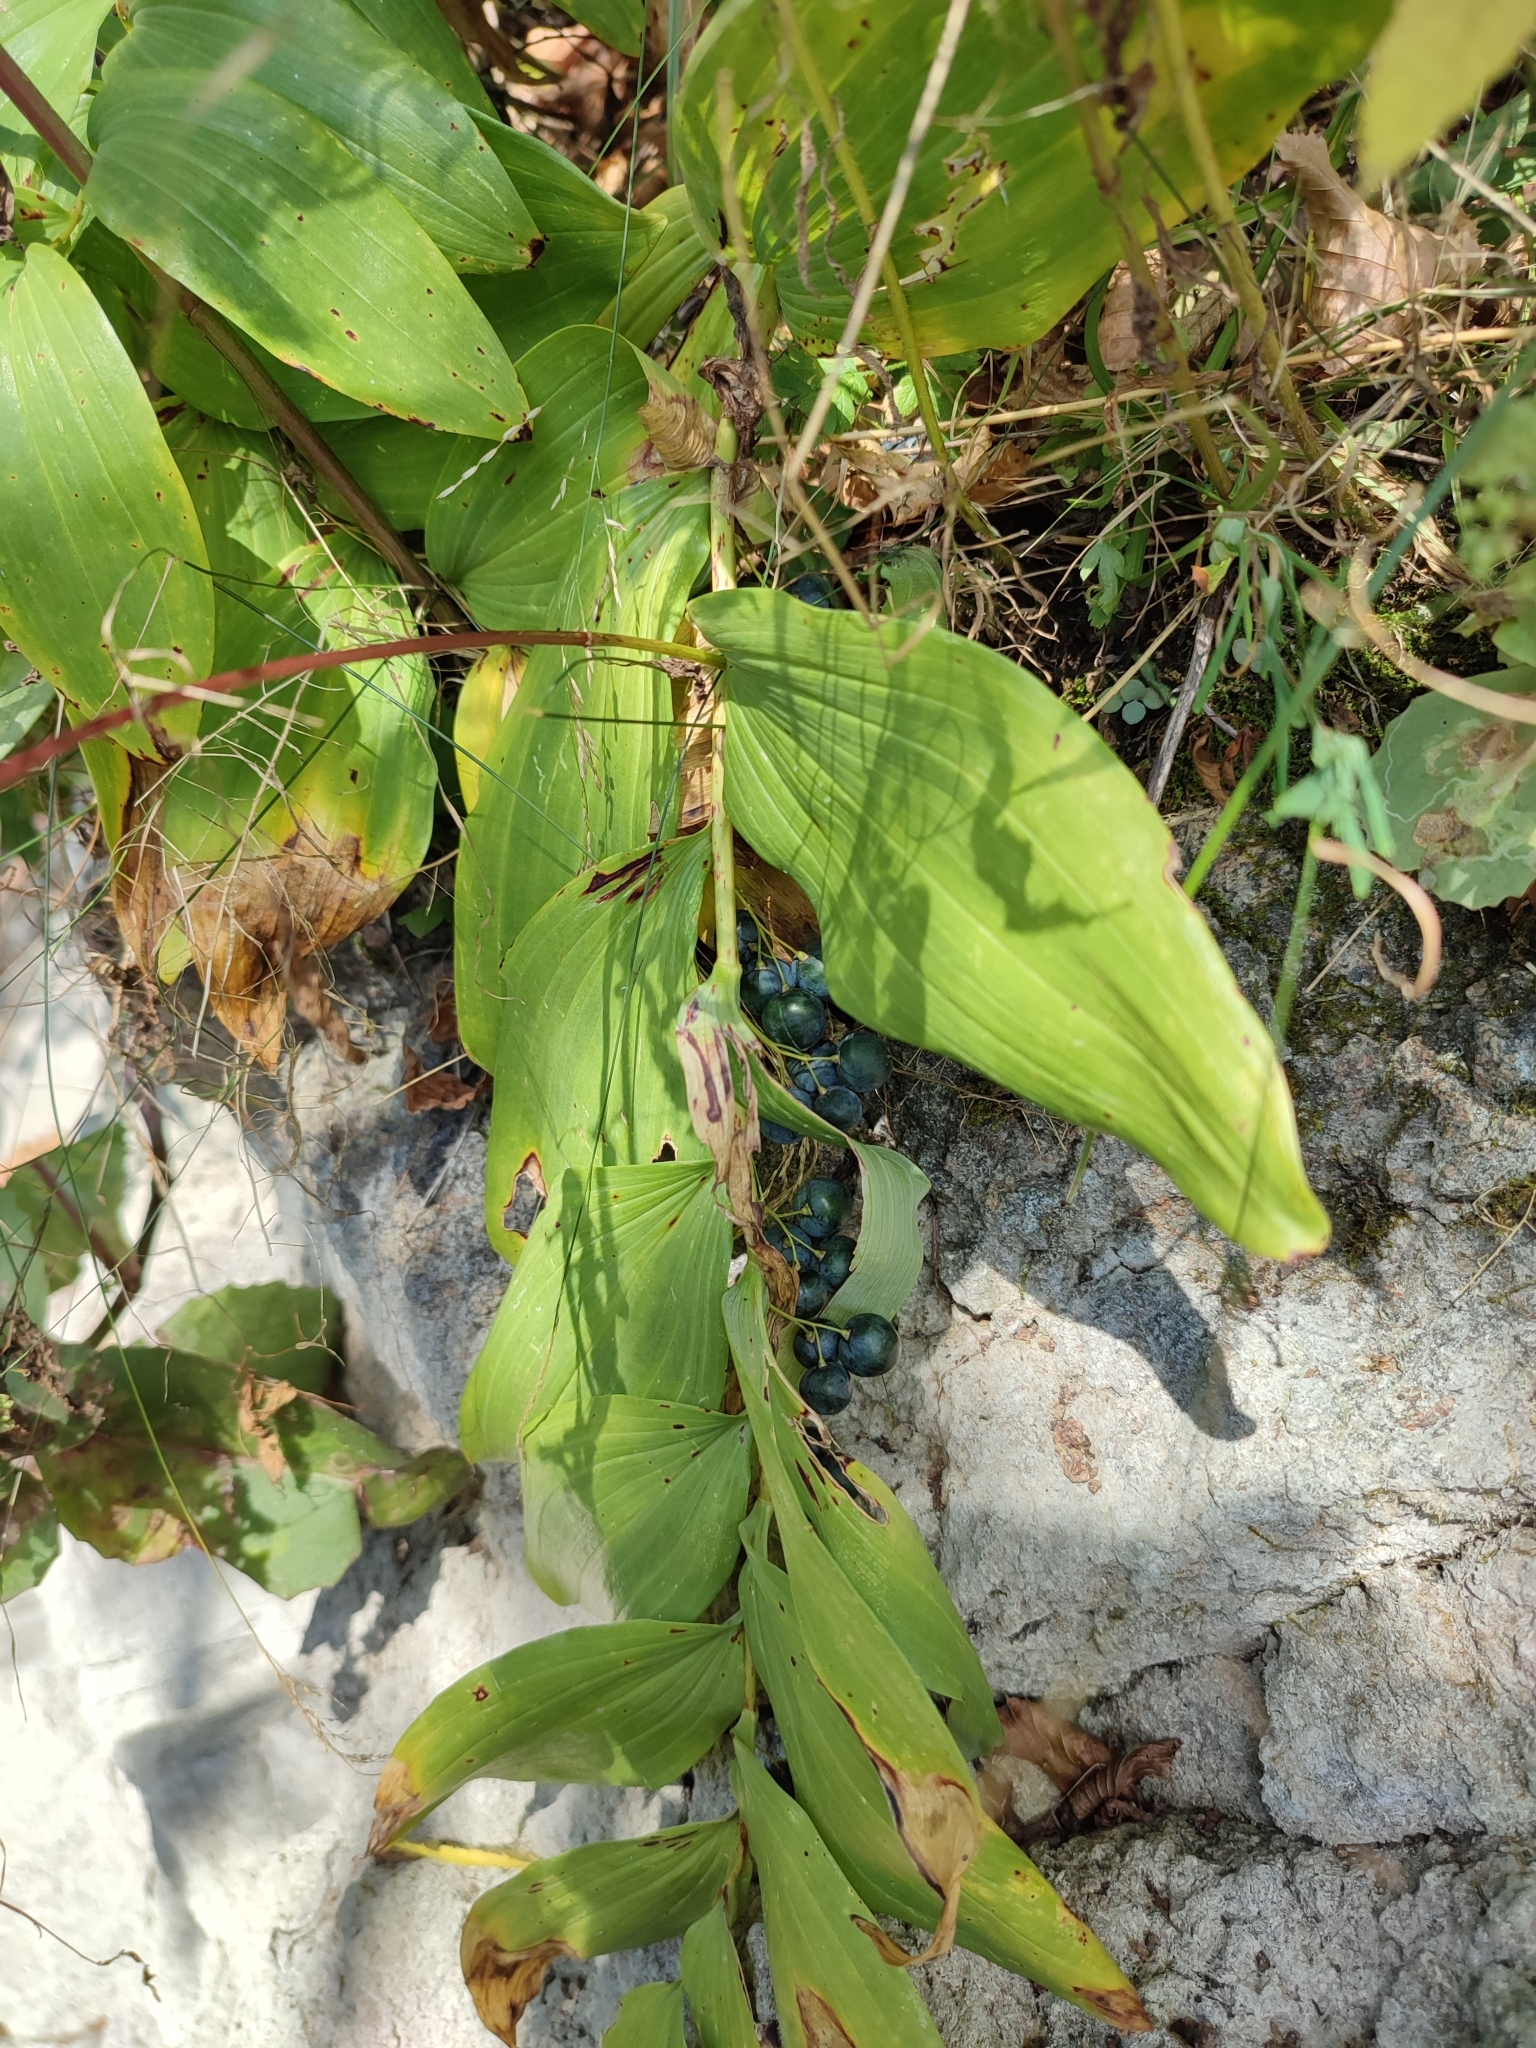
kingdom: Plantae
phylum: Tracheophyta
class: Liliopsida
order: Asparagales
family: Asparagaceae
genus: Polygonatum
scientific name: Polygonatum multiflorum
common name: Solomon's-seal
